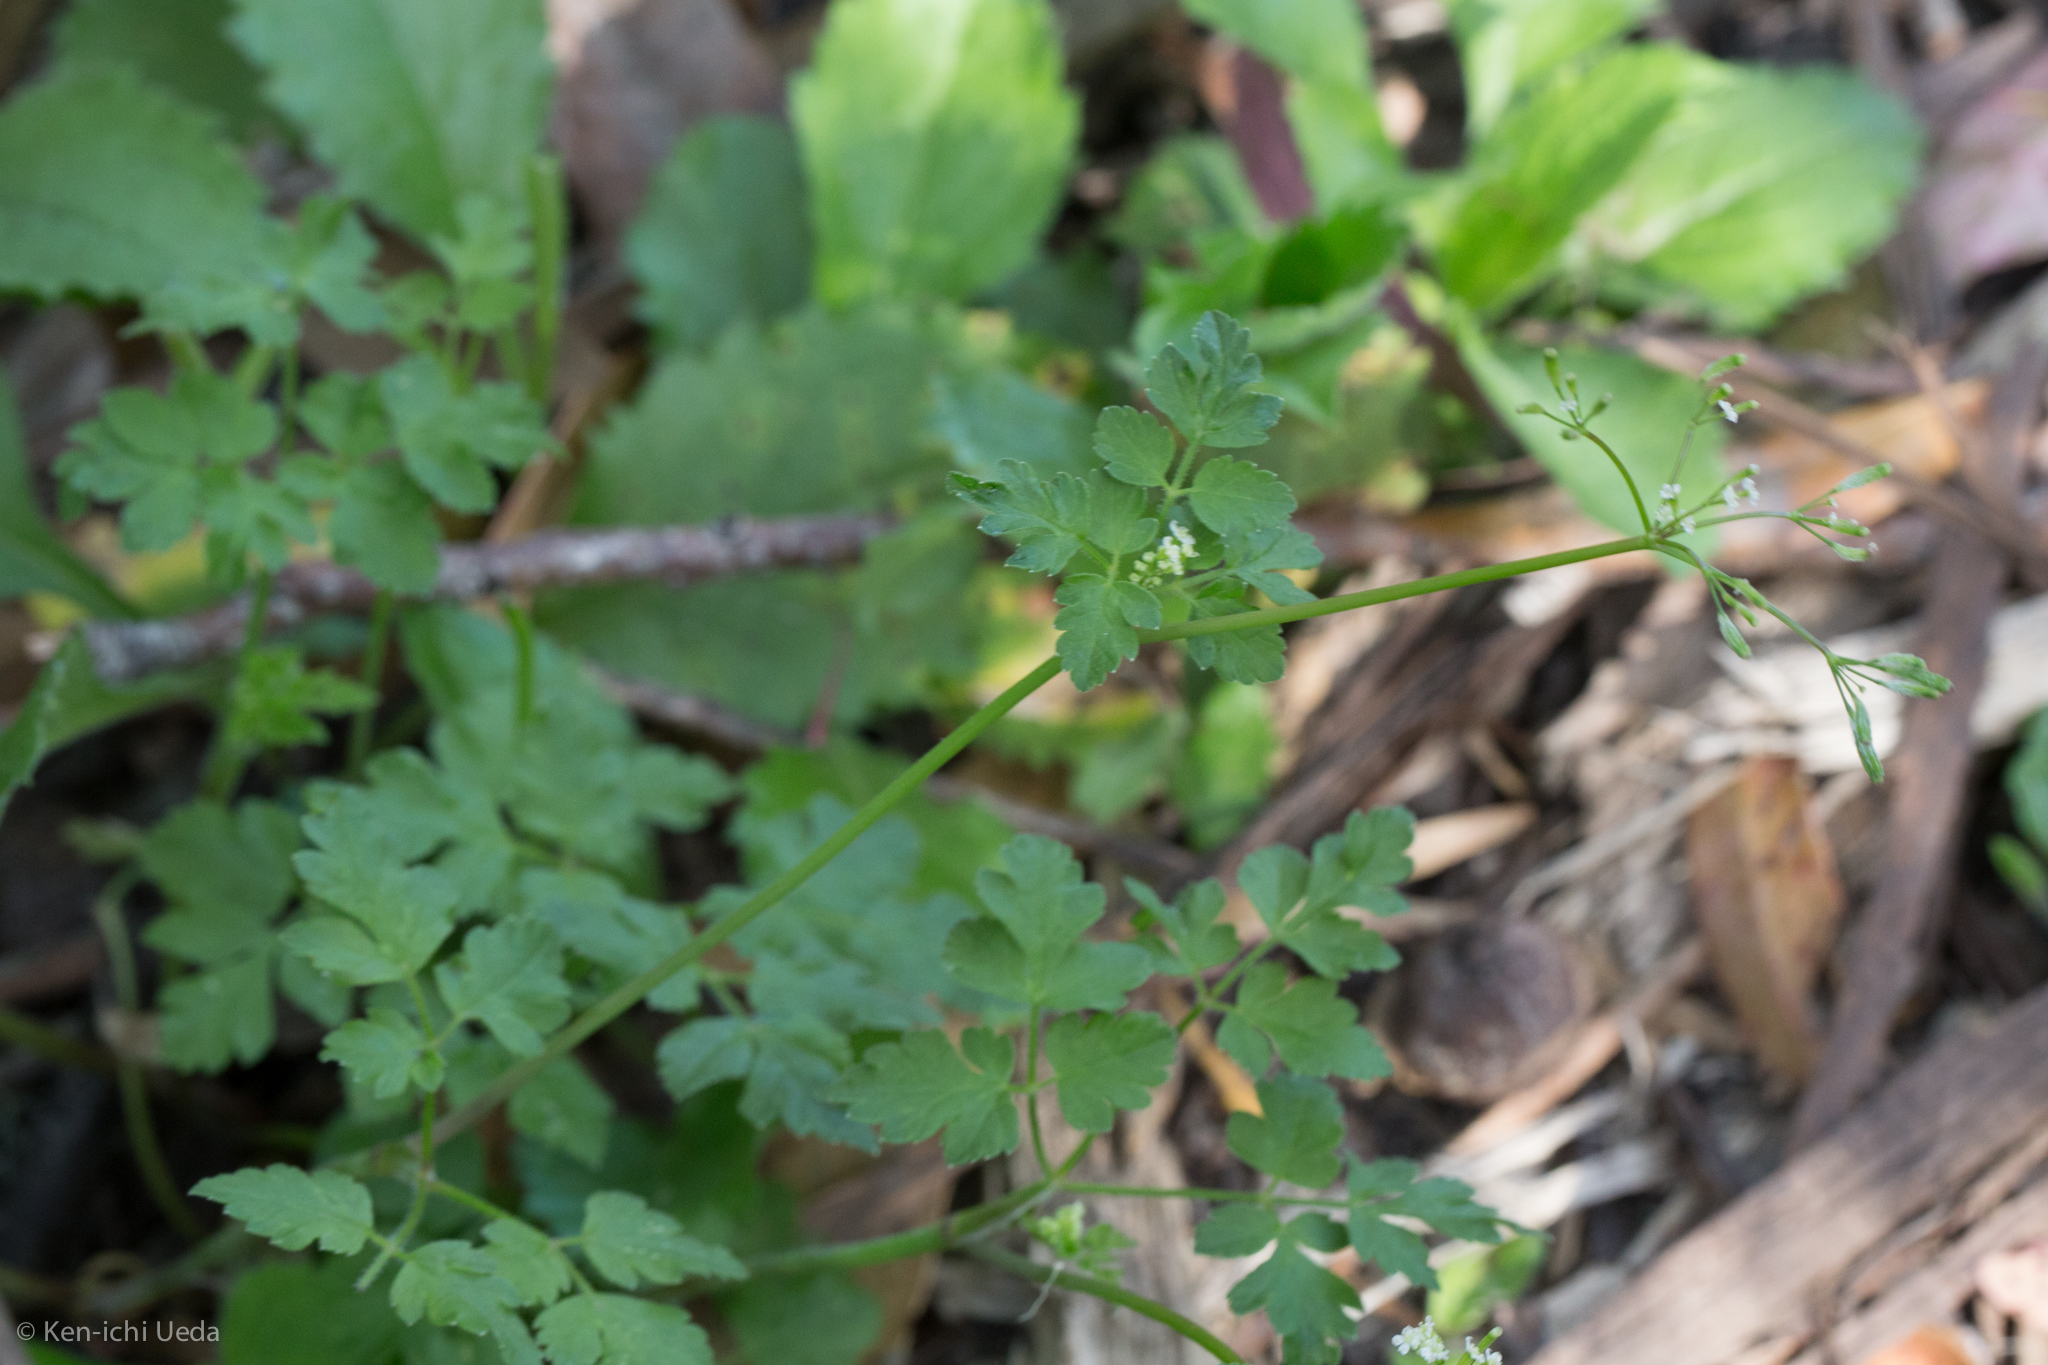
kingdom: Plantae
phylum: Tracheophyta
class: Magnoliopsida
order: Apiales
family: Apiaceae
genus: Osmorhiza
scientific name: Osmorhiza berteroi
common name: Mountain sweet cicely
